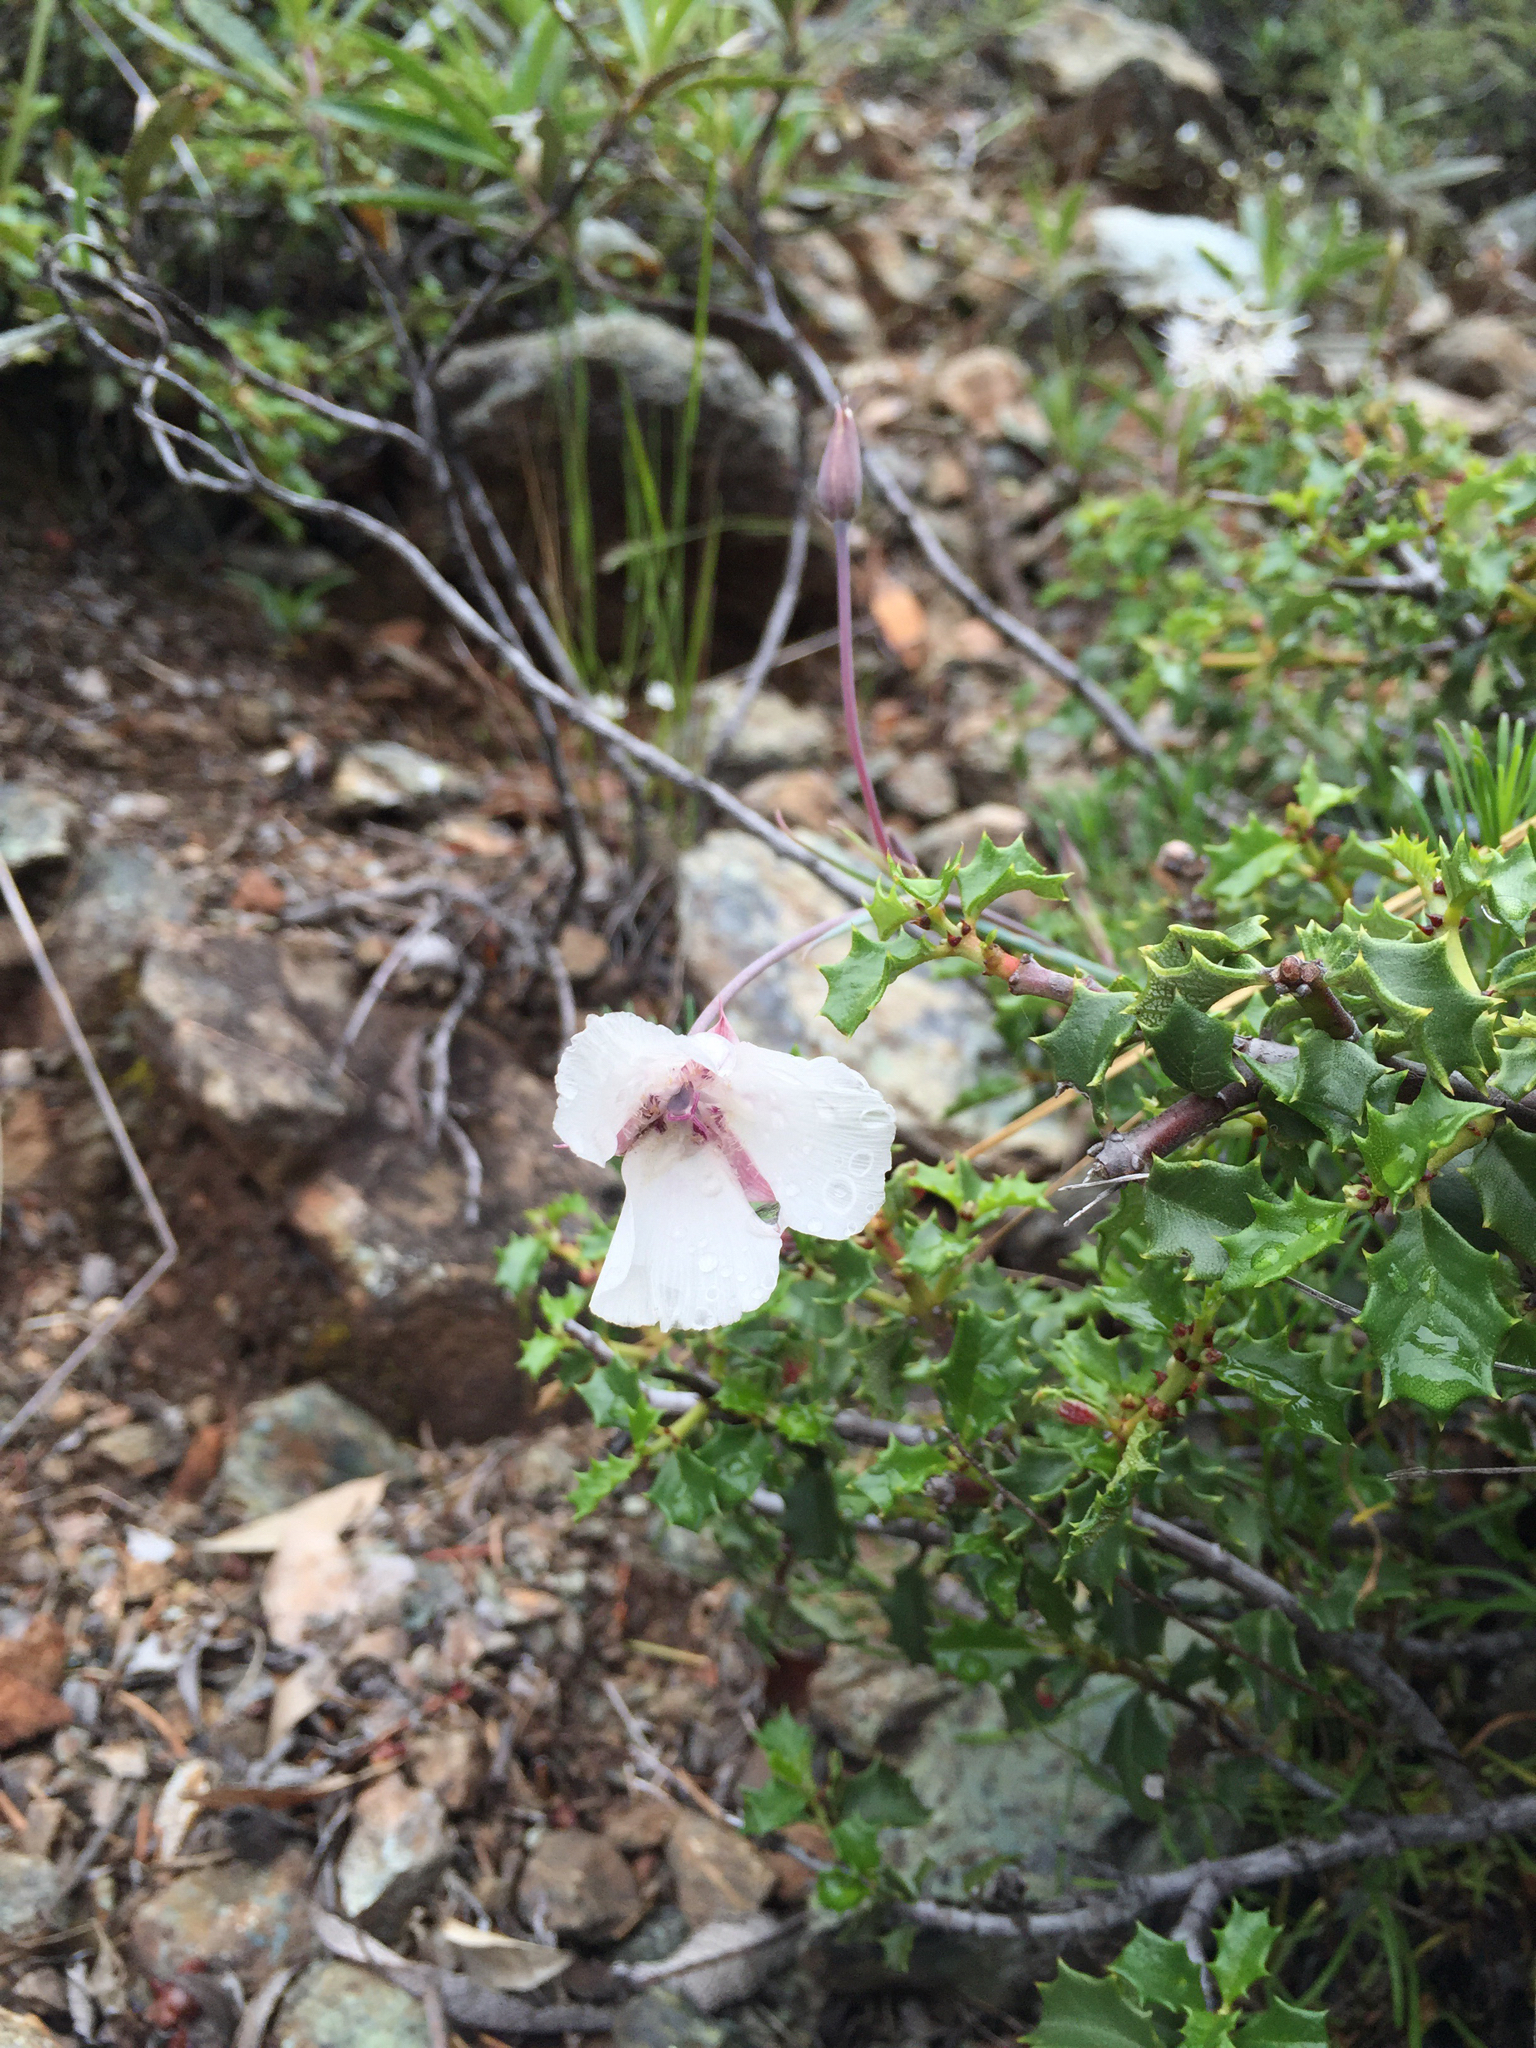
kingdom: Plantae
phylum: Tracheophyta
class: Liliopsida
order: Liliales
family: Liliaceae
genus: Calochortus
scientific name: Calochortus umbellatus
